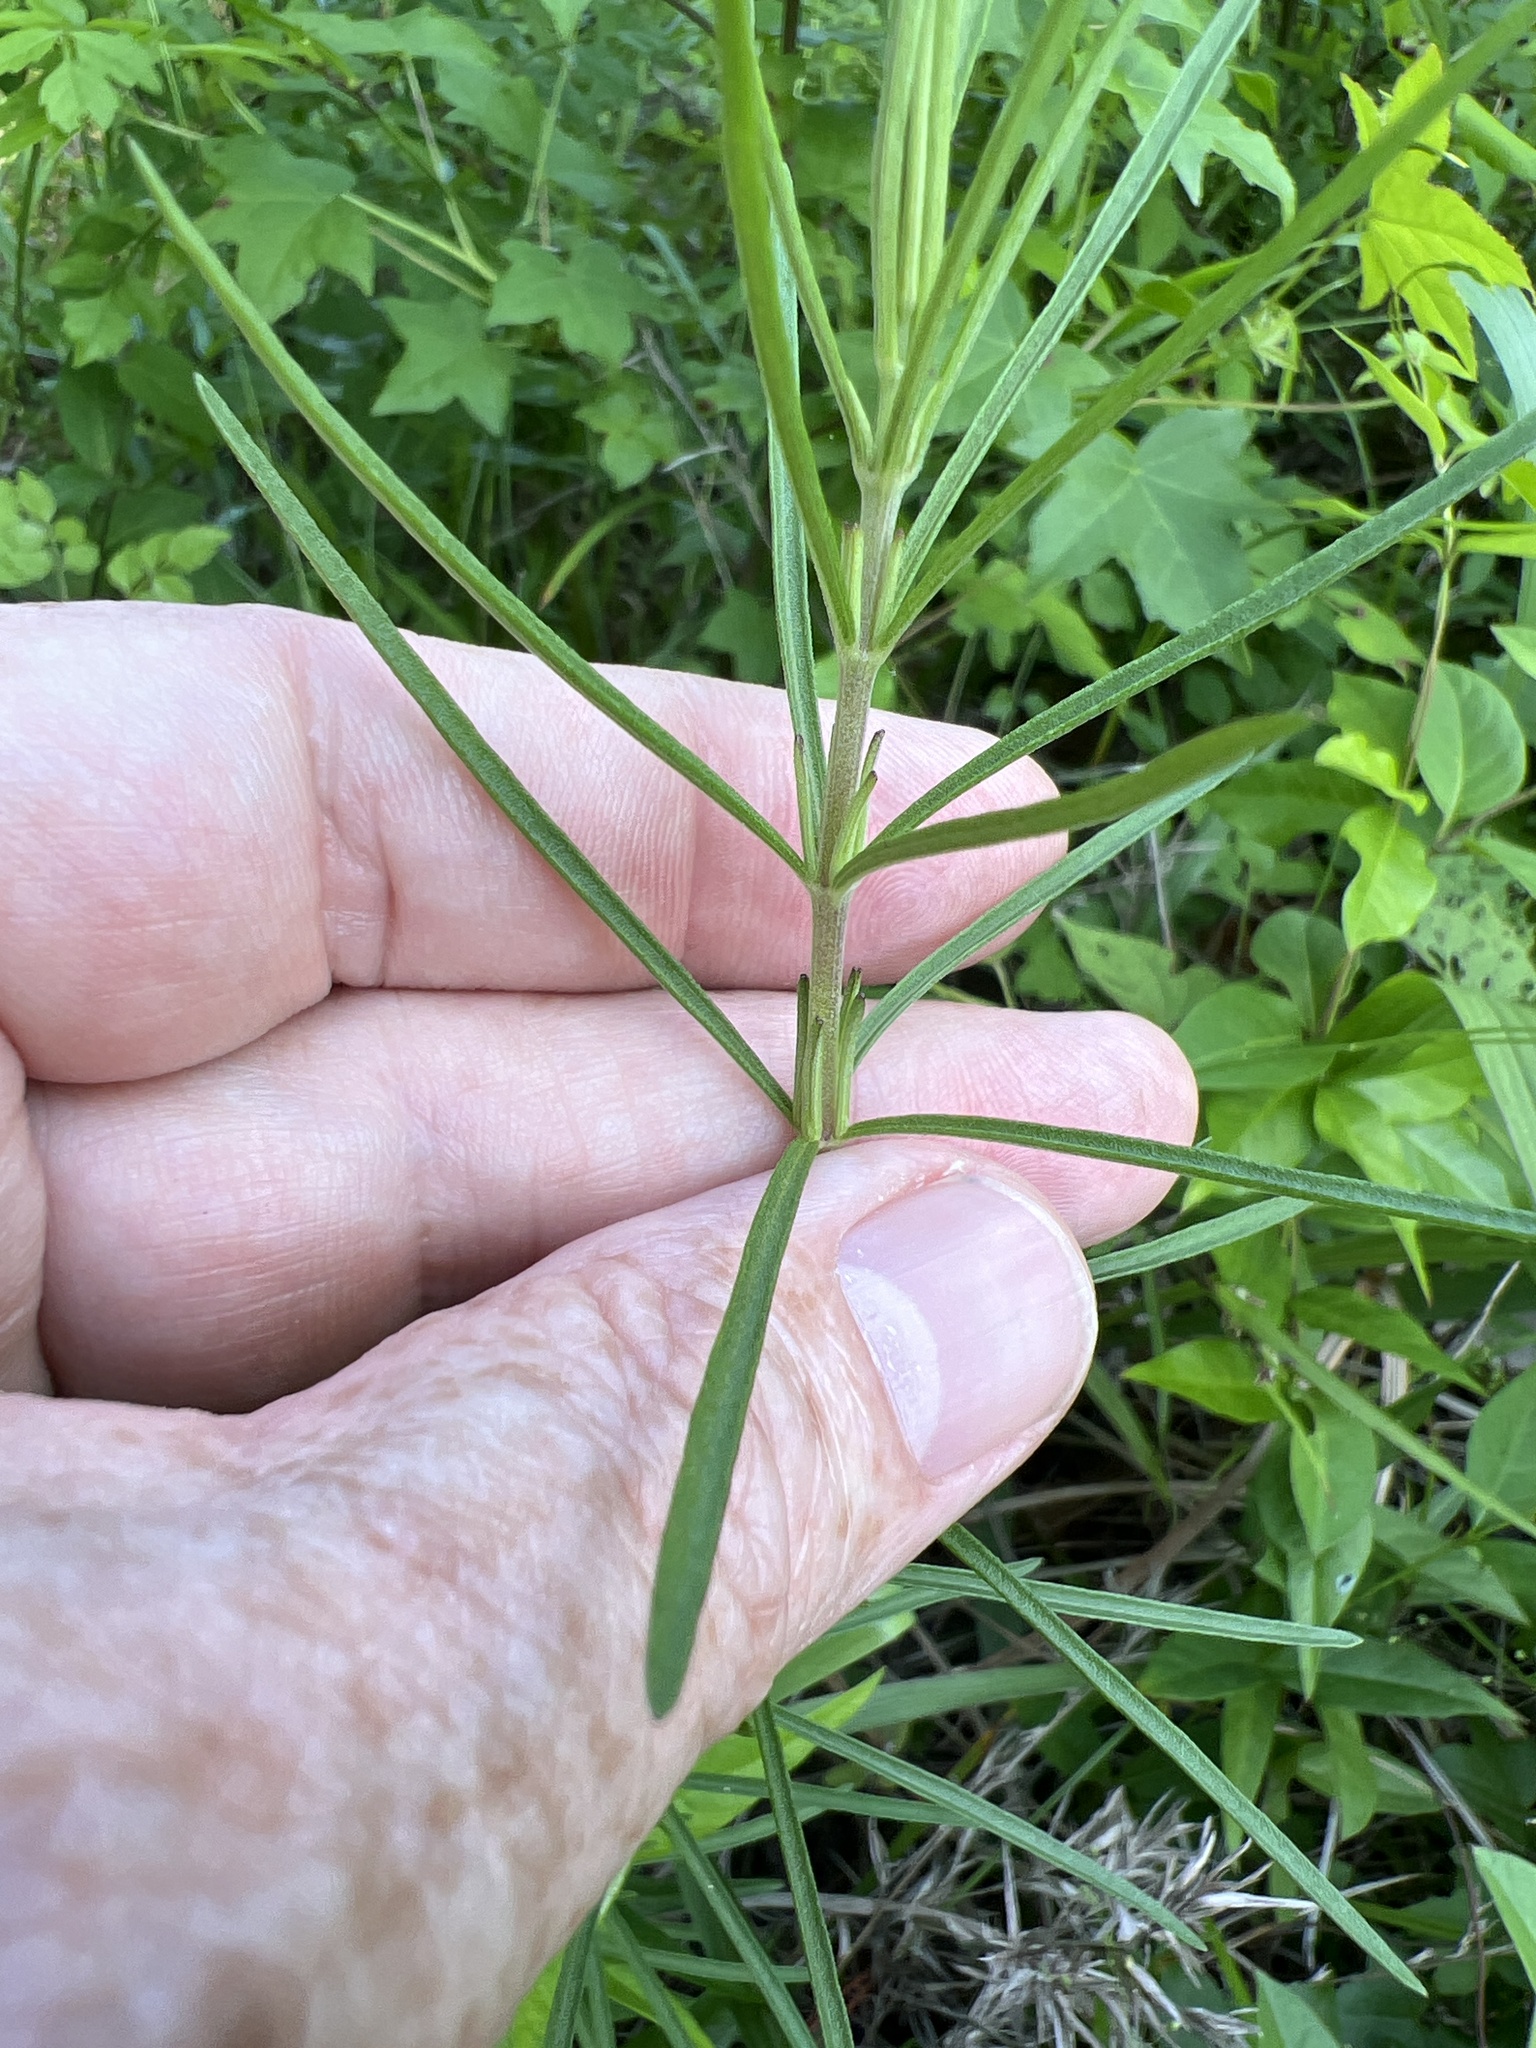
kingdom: Plantae
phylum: Tracheophyta
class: Magnoliopsida
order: Asterales
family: Asteraceae
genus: Eupatorium
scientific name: Eupatorium hyssopifolium
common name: Hyssop-leaf thoroughwort
